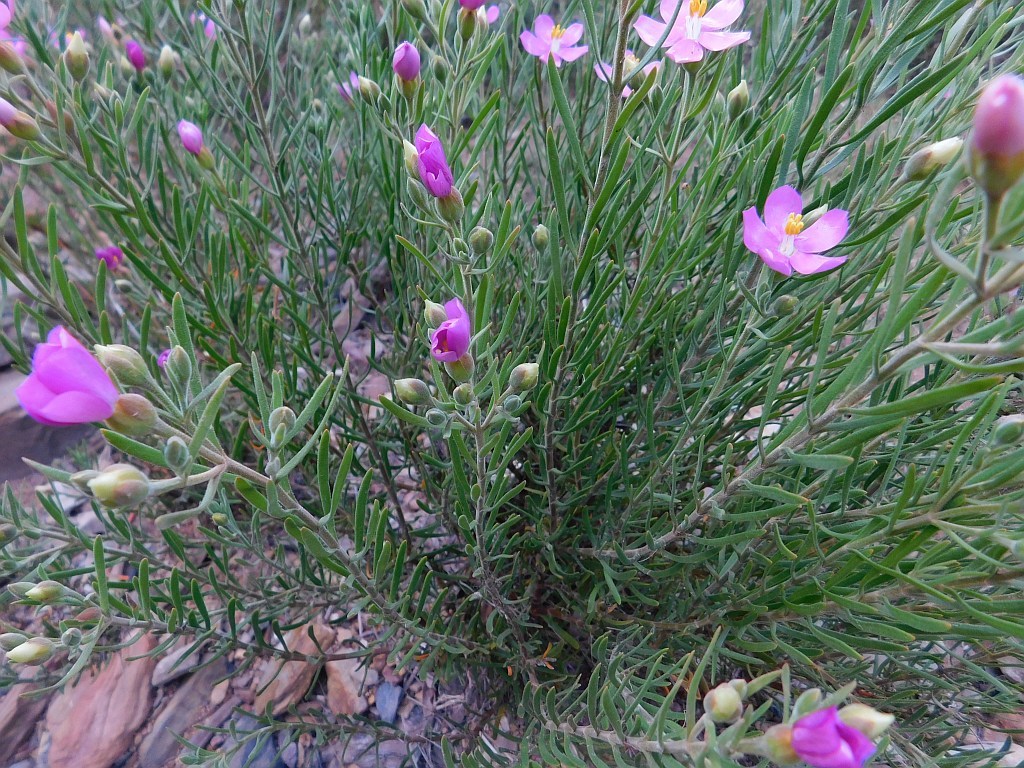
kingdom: Plantae
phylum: Tracheophyta
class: Magnoliopsida
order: Gentianales
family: Gentianaceae
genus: Orphium
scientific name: Orphium frutescens
